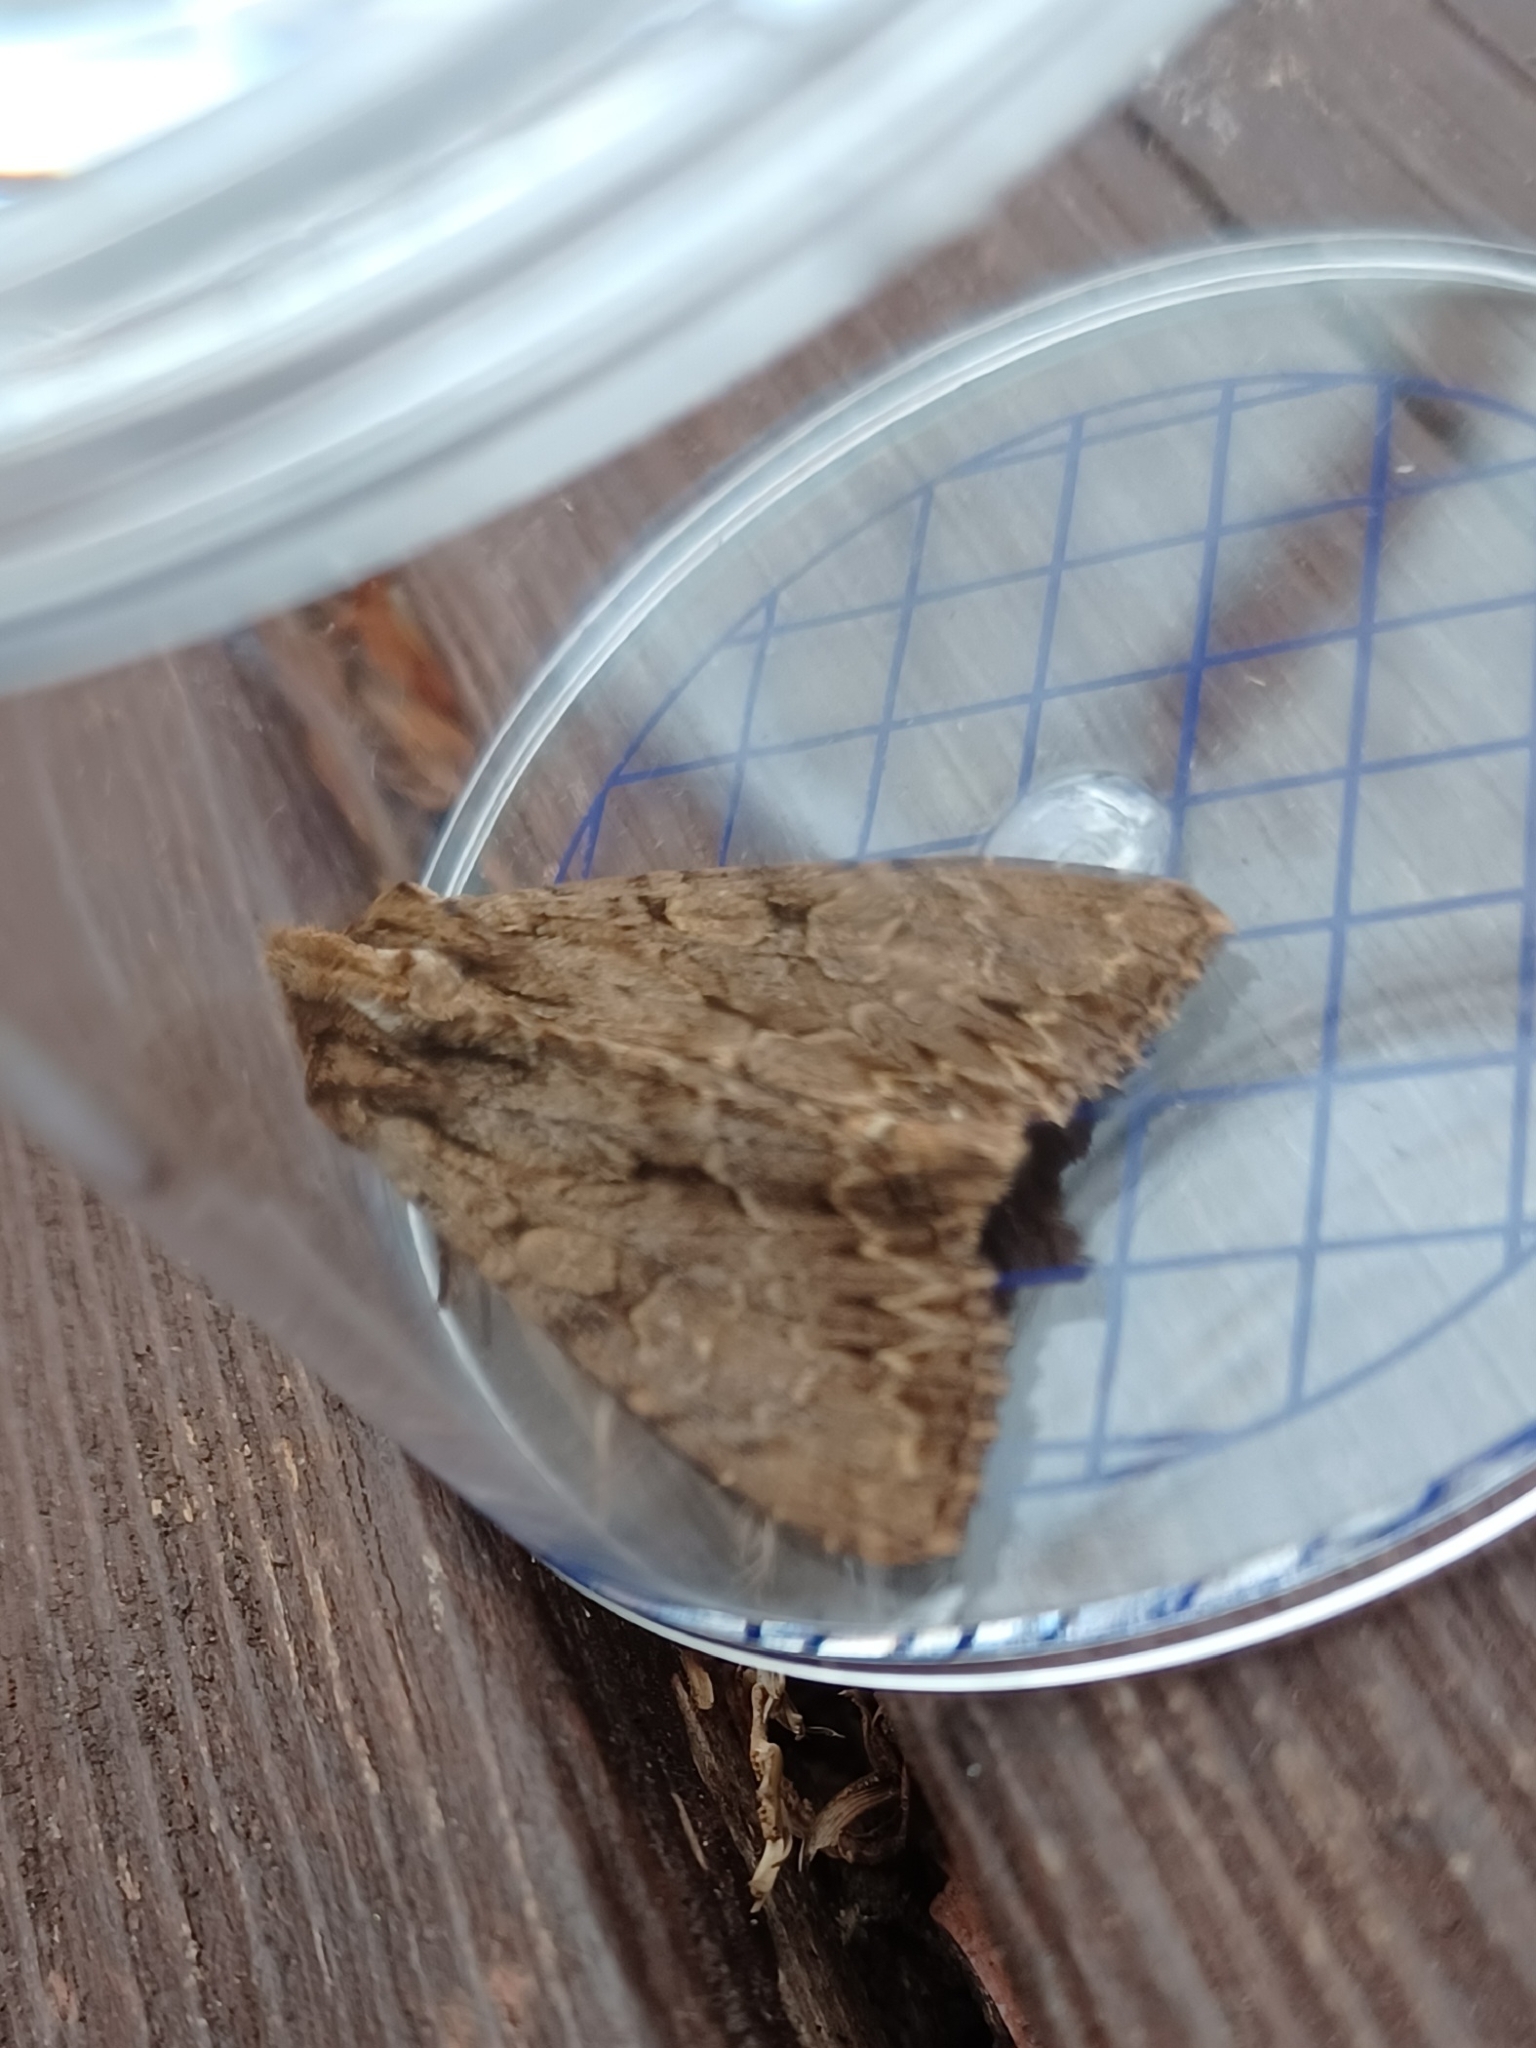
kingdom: Animalia
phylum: Arthropoda
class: Insecta
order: Lepidoptera
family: Noctuidae
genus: Apamea
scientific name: Apamea monoglypha
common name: Dark arches
